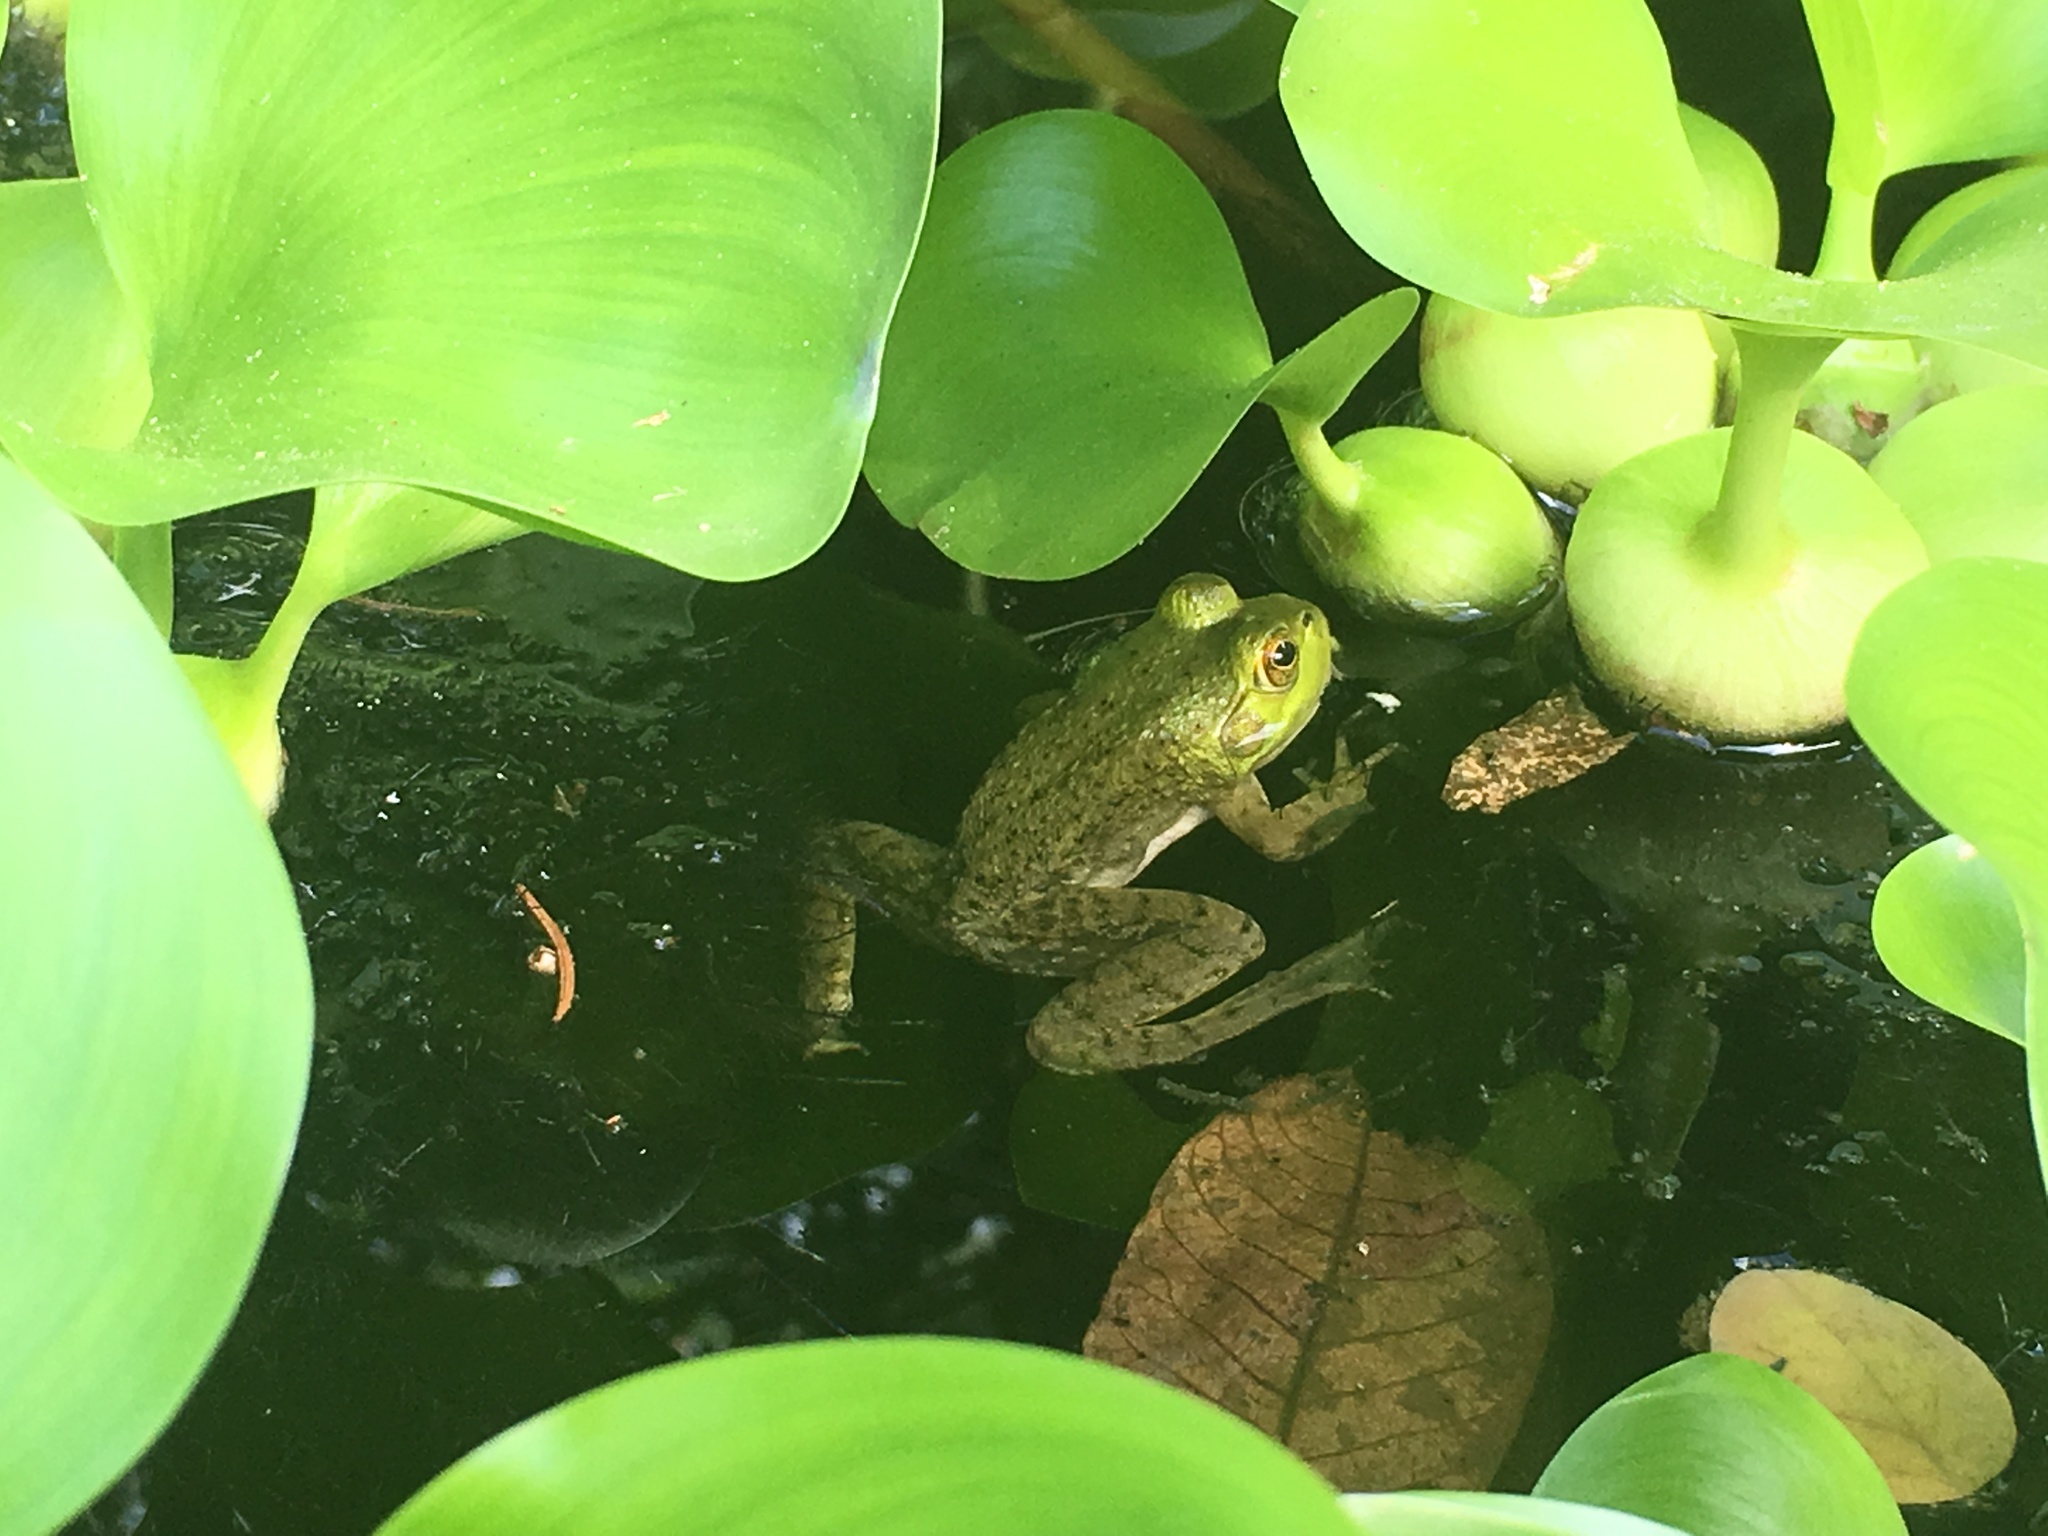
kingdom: Animalia
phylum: Chordata
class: Amphibia
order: Anura
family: Ranidae
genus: Lithobates
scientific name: Lithobates catesbeianus
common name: American bullfrog
